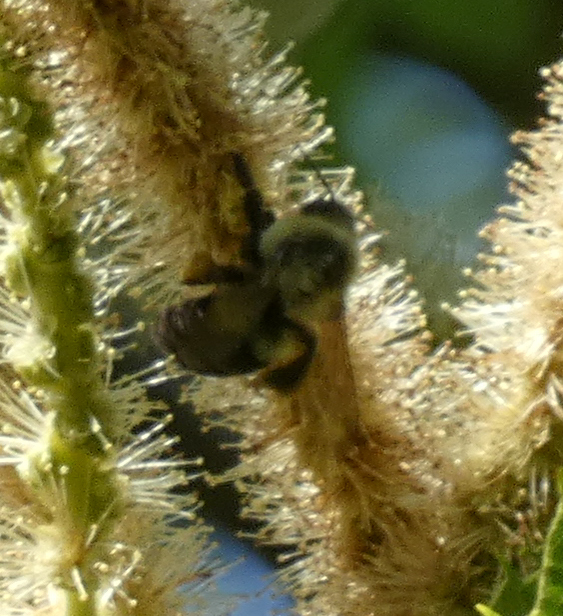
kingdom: Animalia
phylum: Arthropoda
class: Insecta
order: Hymenoptera
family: Apidae
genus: Bombus
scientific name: Bombus impatiens
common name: Common eastern bumble bee
